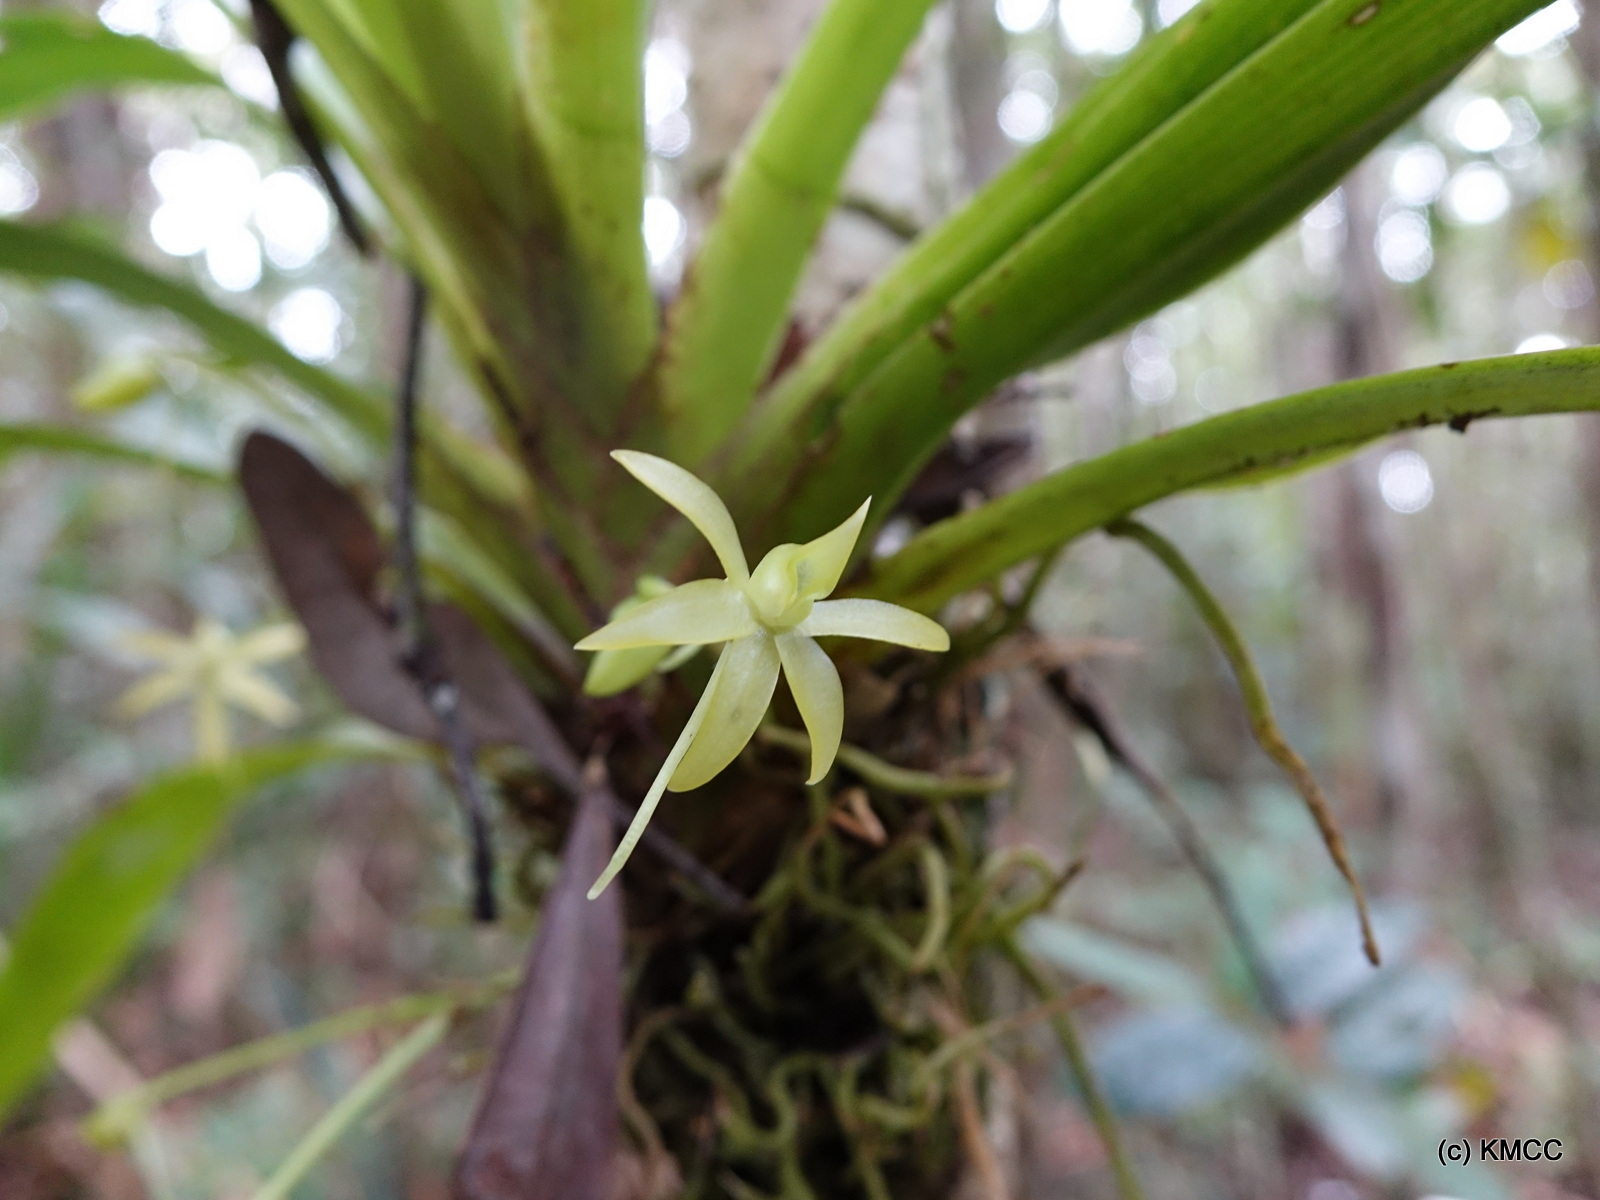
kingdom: Plantae
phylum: Tracheophyta
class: Liliopsida
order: Asparagales
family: Orchidaceae
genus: Angraecum
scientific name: Angraecum huntleyoides
